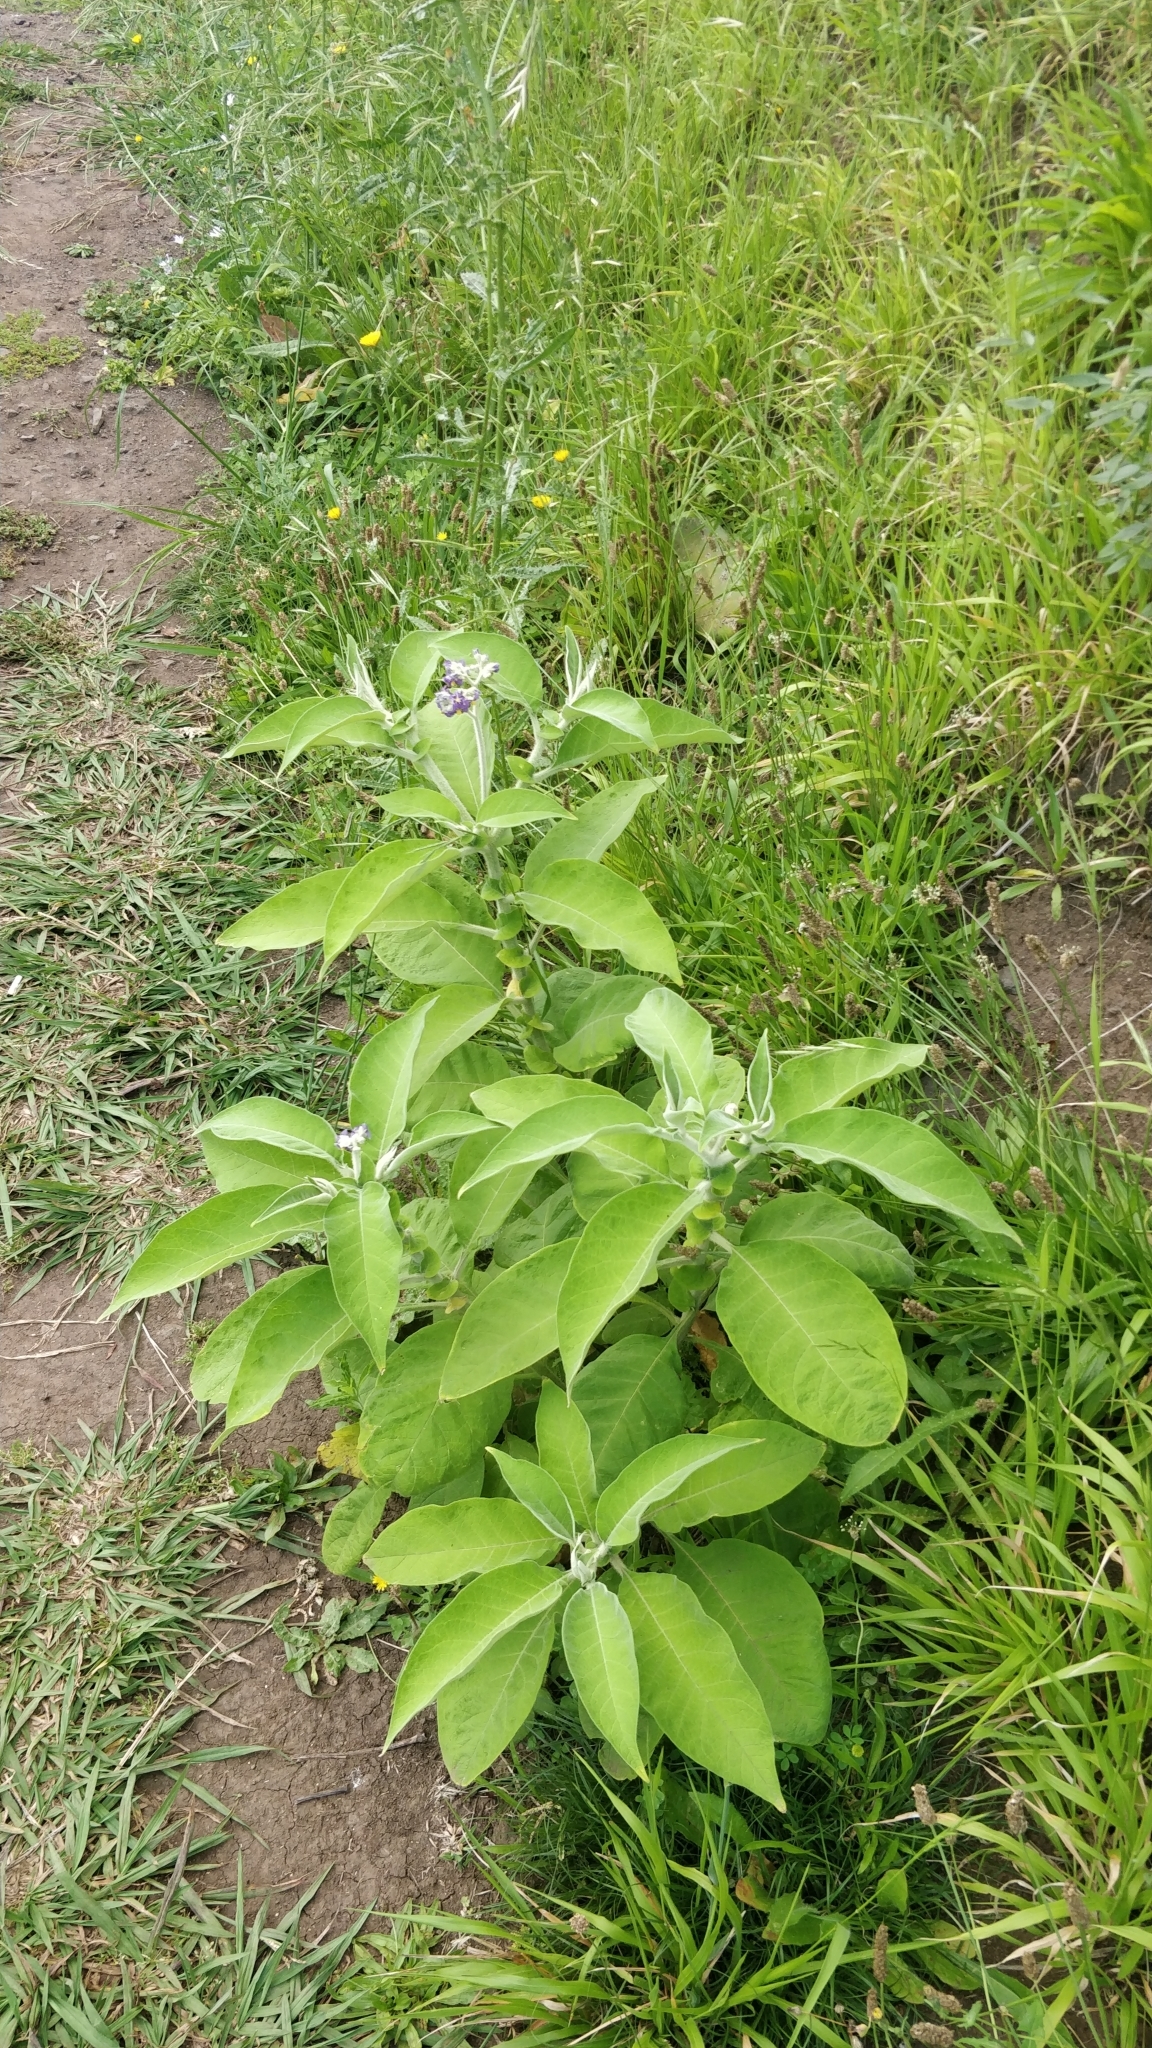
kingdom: Plantae
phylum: Tracheophyta
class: Magnoliopsida
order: Solanales
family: Solanaceae
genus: Solanum
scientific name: Solanum mauritianum
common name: Earleaf nightshade
